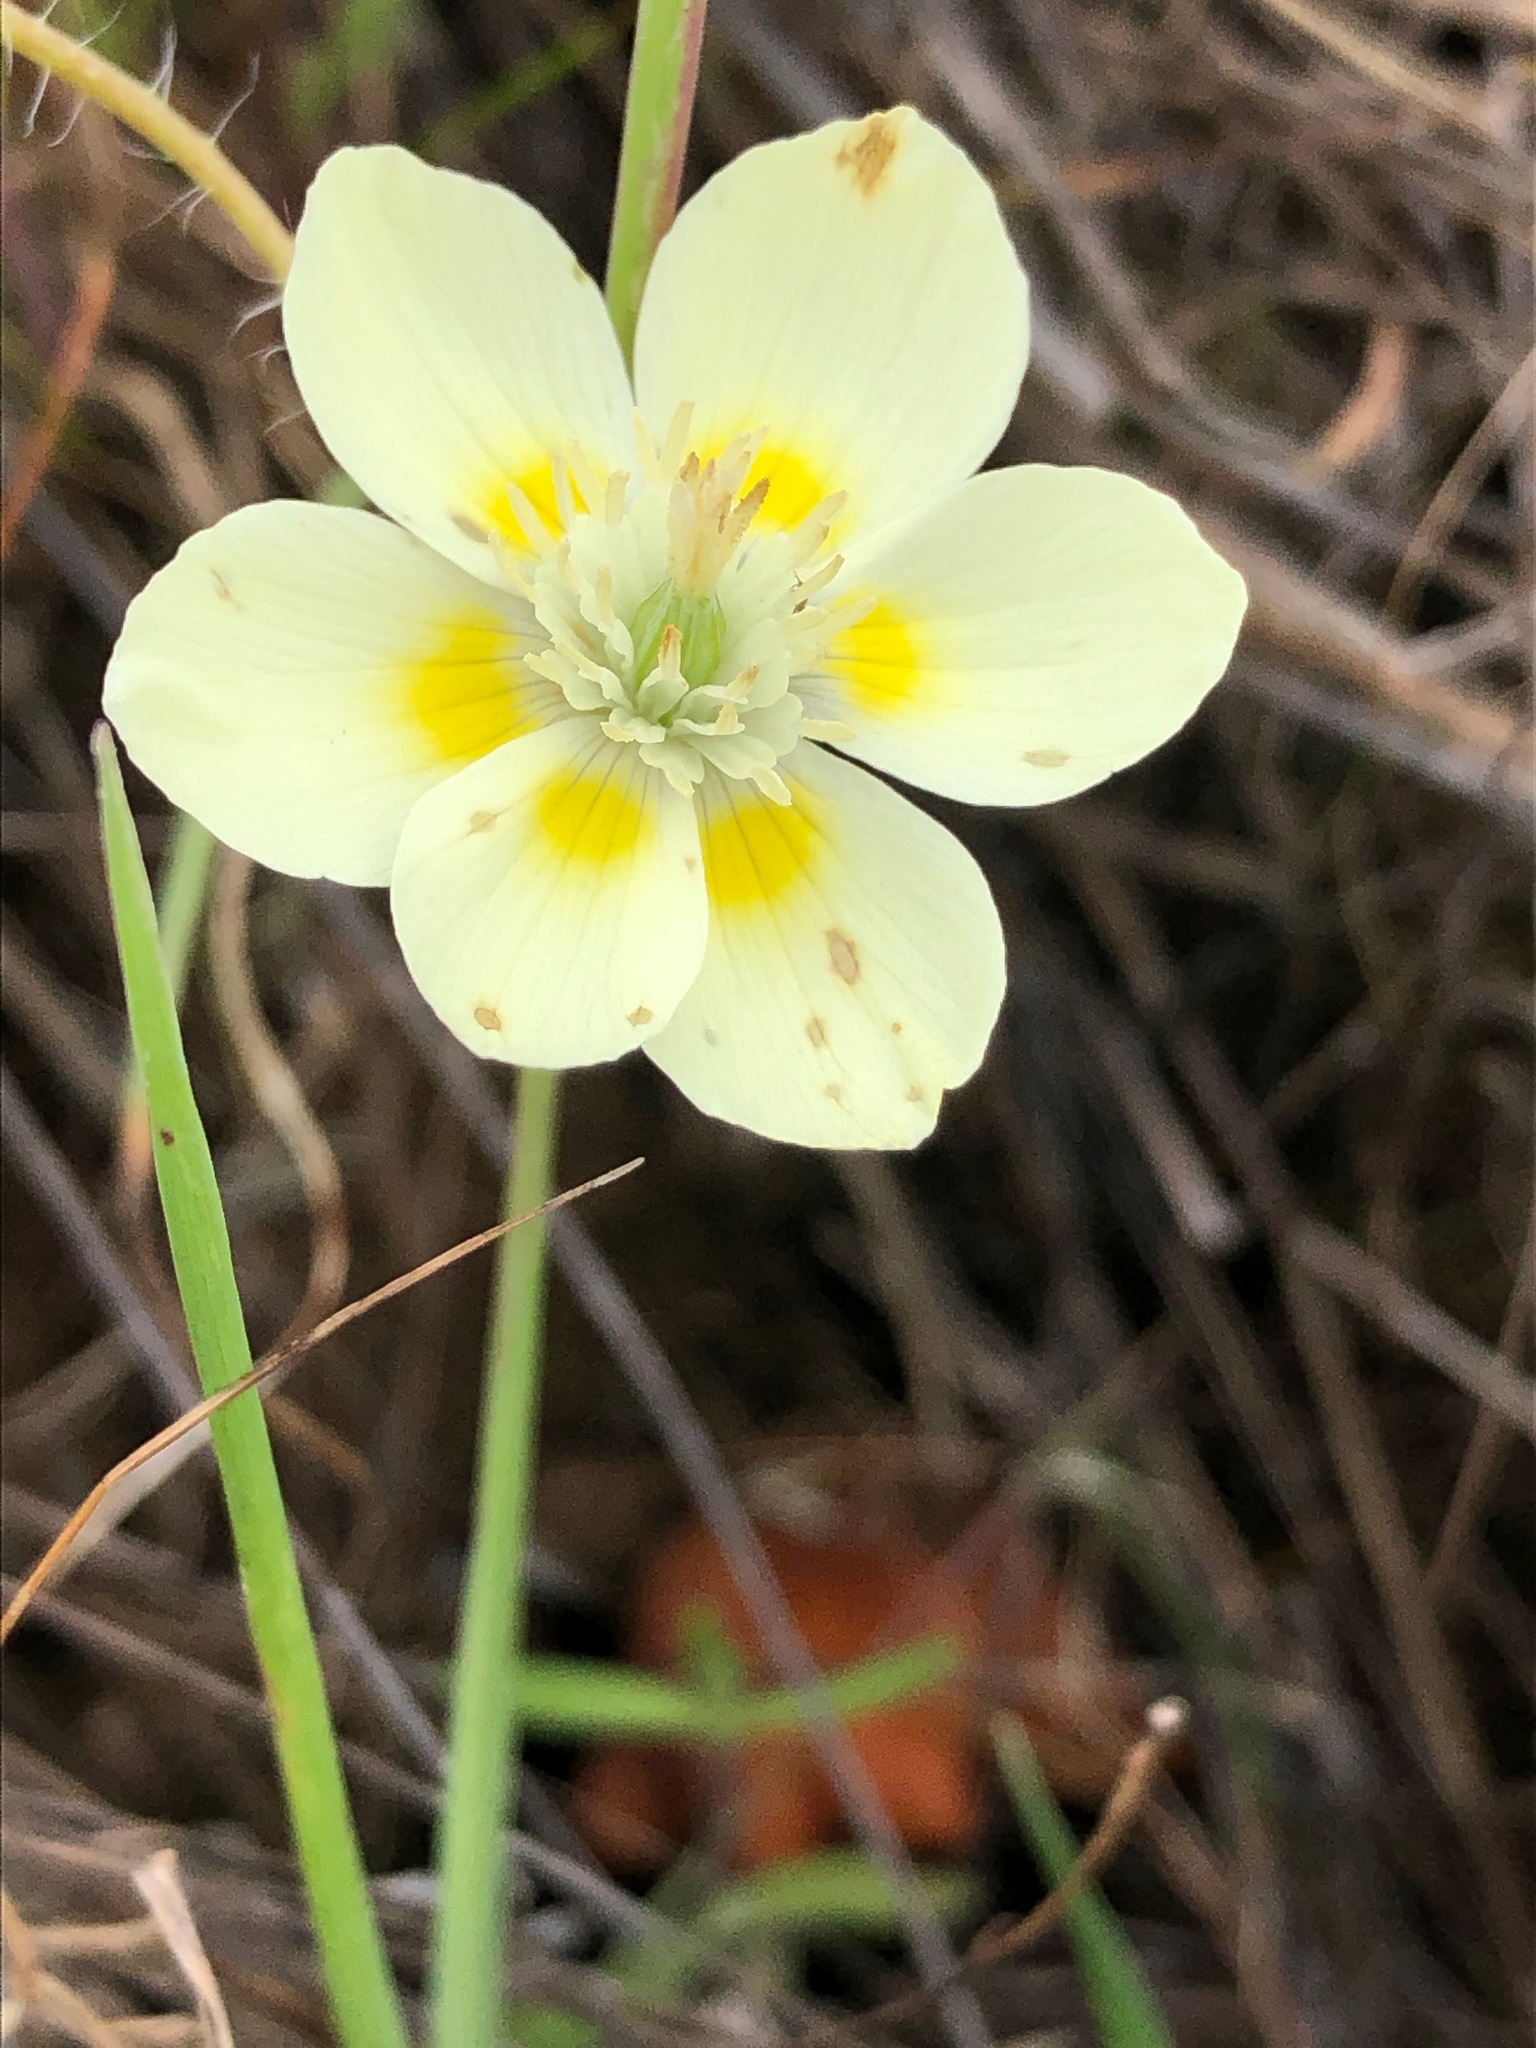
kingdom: Plantae
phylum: Tracheophyta
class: Magnoliopsida
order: Ranunculales
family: Papaveraceae
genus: Platystemon
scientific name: Platystemon californicus
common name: Cream-cups
